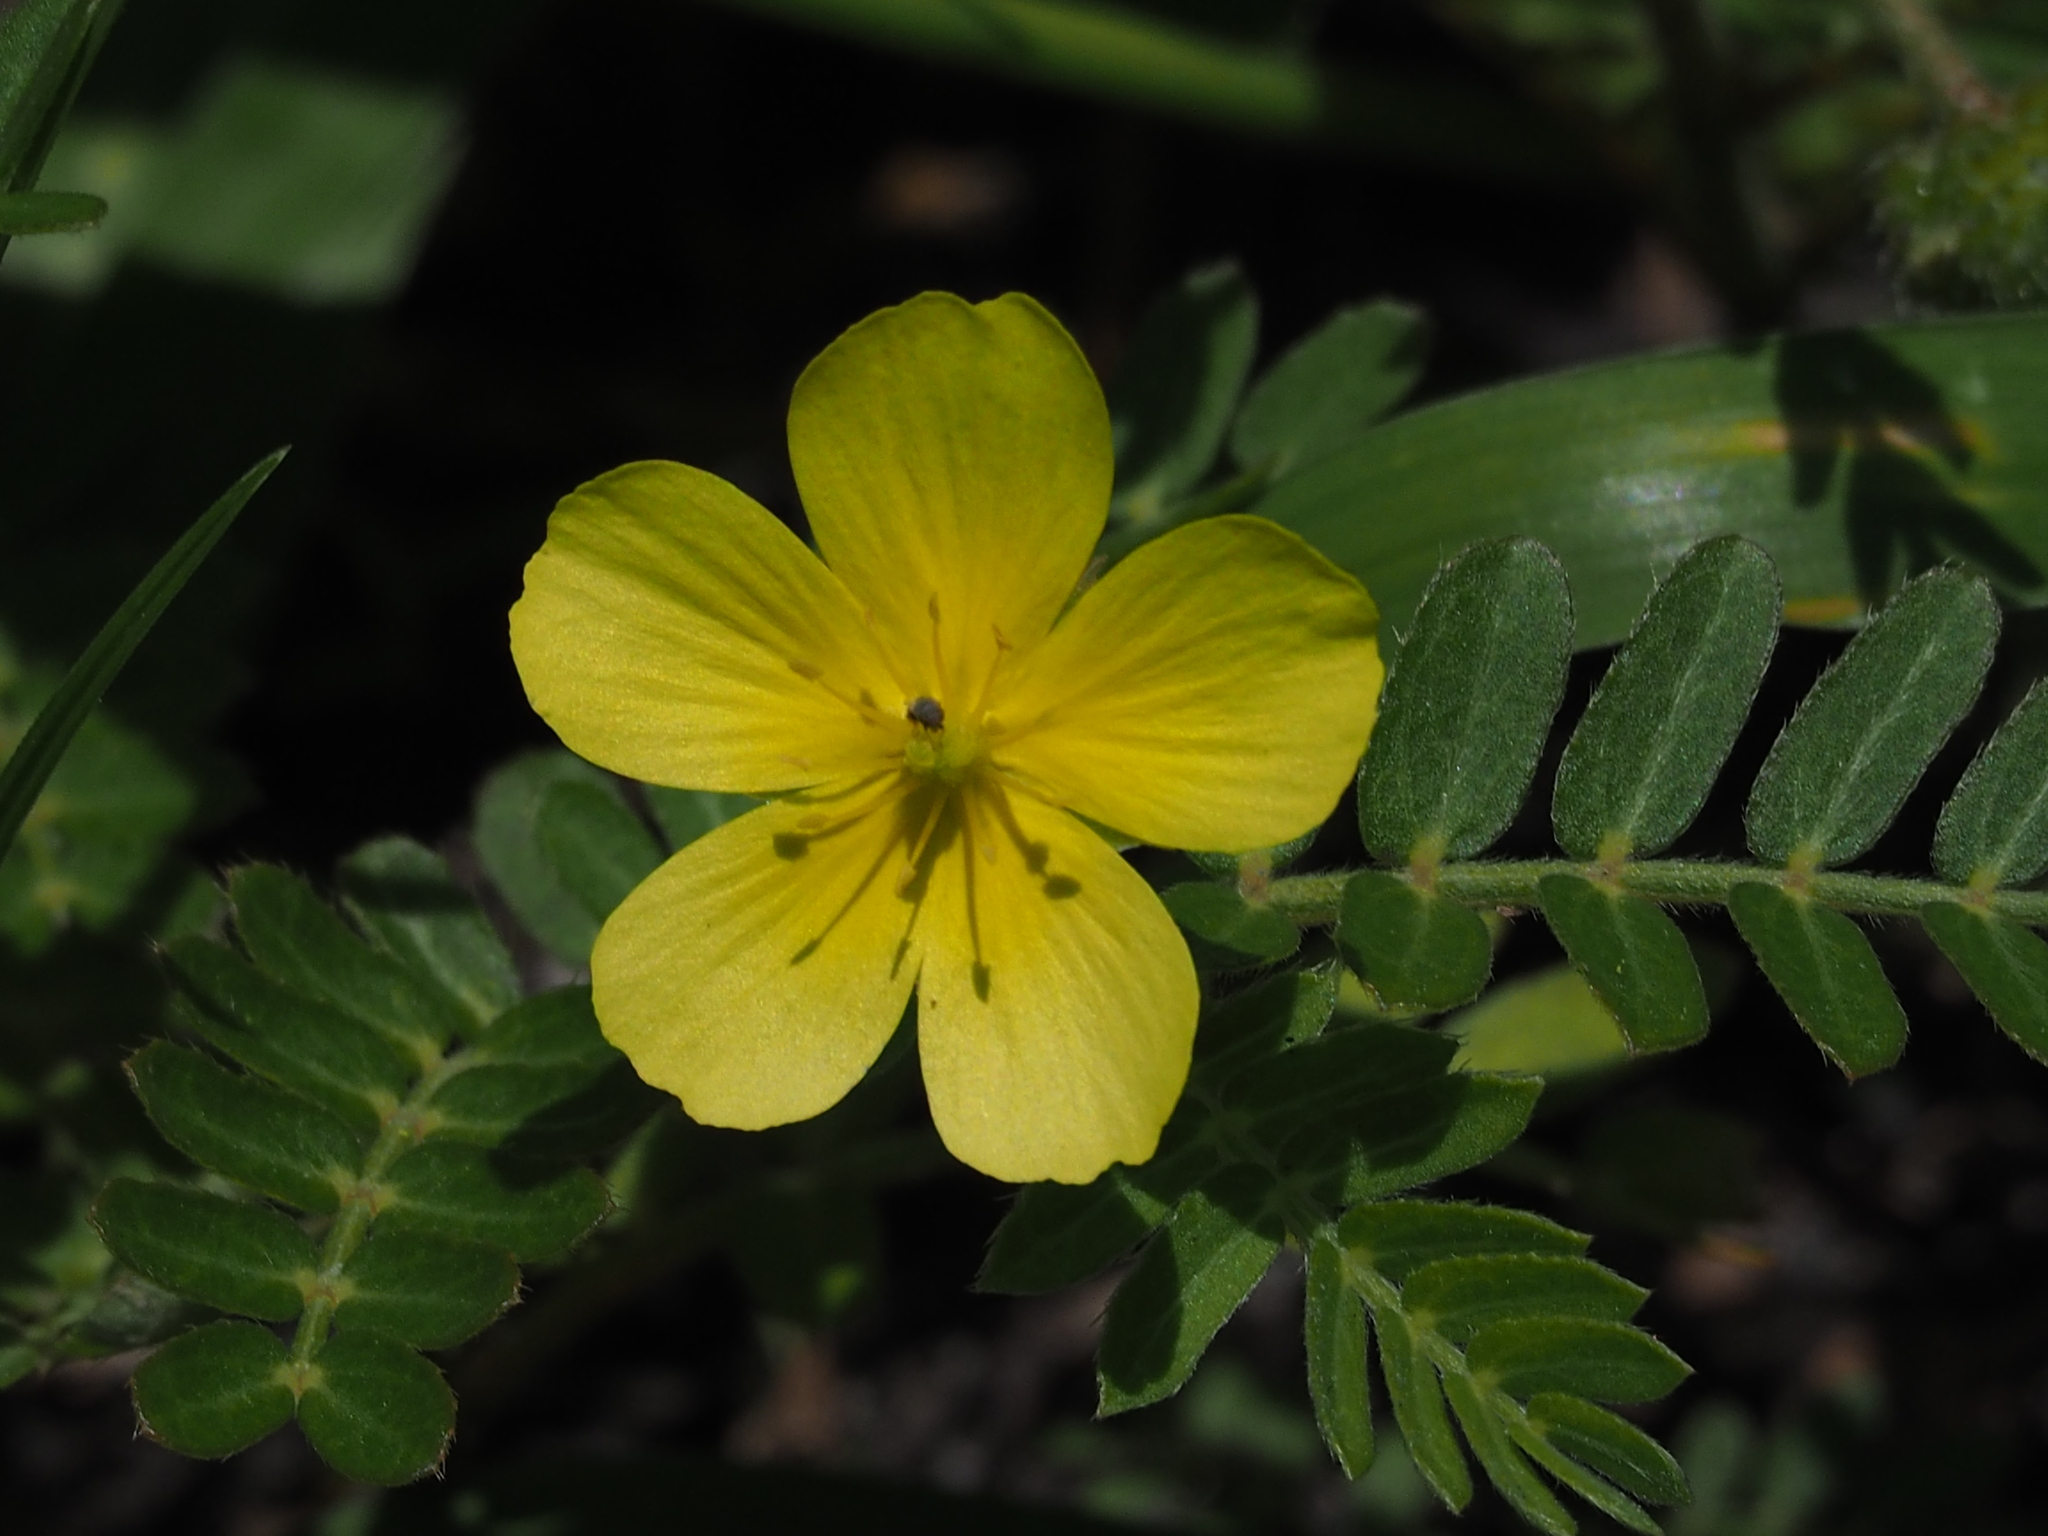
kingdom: Plantae
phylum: Tracheophyta
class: Magnoliopsida
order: Zygophyllales
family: Zygophyllaceae
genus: Tribulus
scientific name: Tribulus cistoides
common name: Jamaican feverplant
